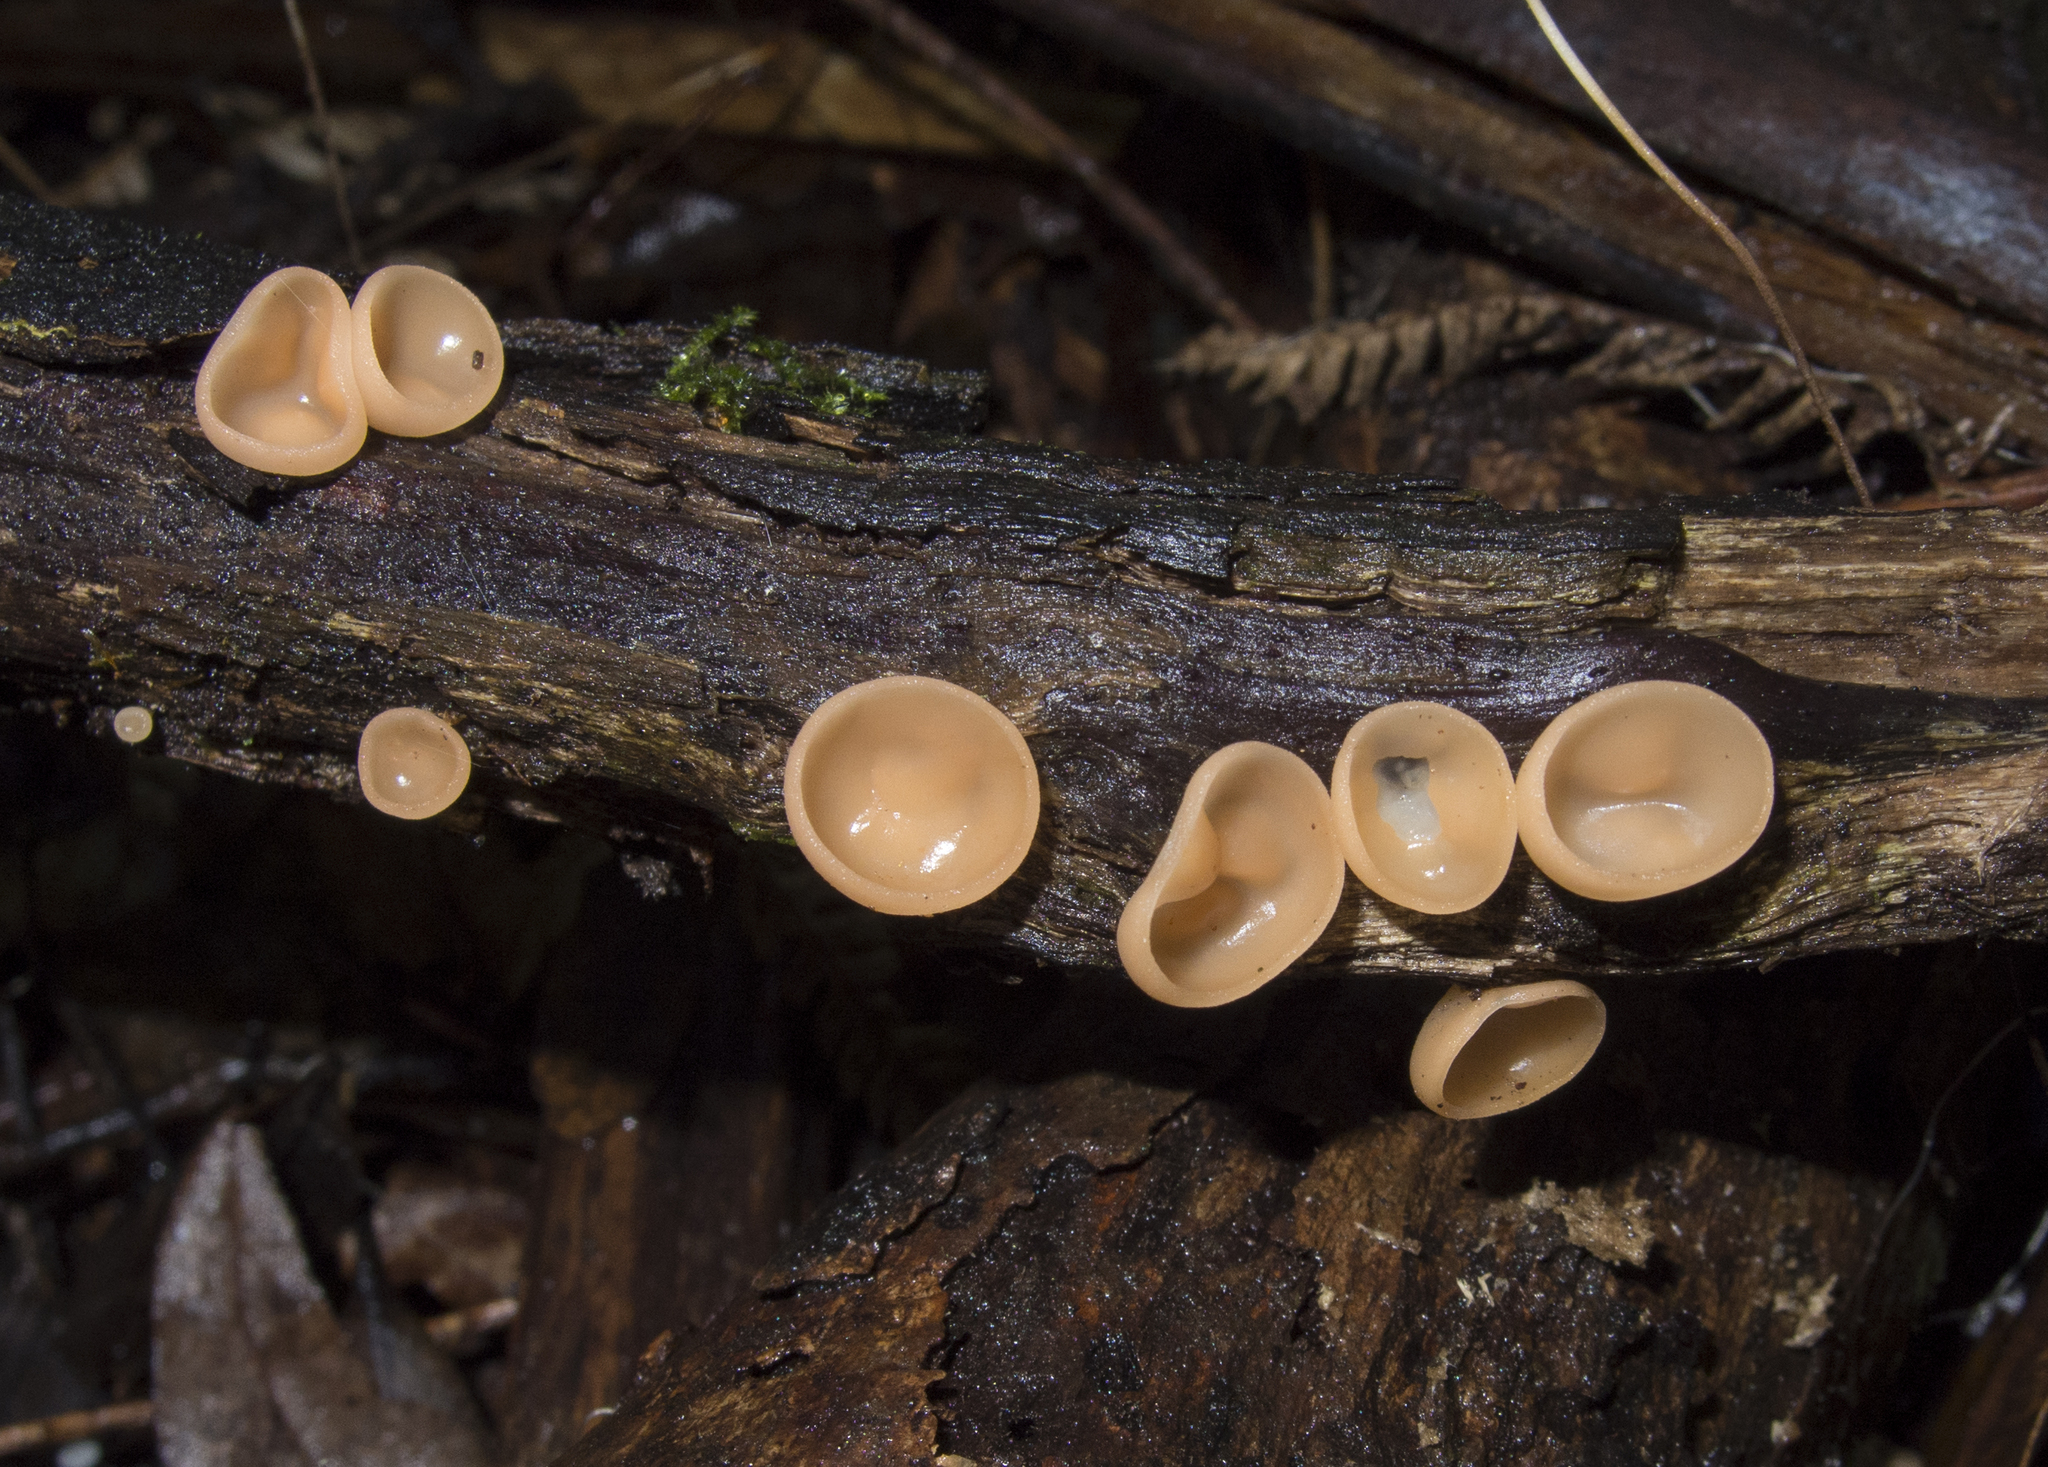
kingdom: Fungi
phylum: Ascomycota
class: Pezizomycetes
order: Pezizales
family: Sarcoscyphaceae
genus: Cookeina
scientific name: Cookeina colensoi
